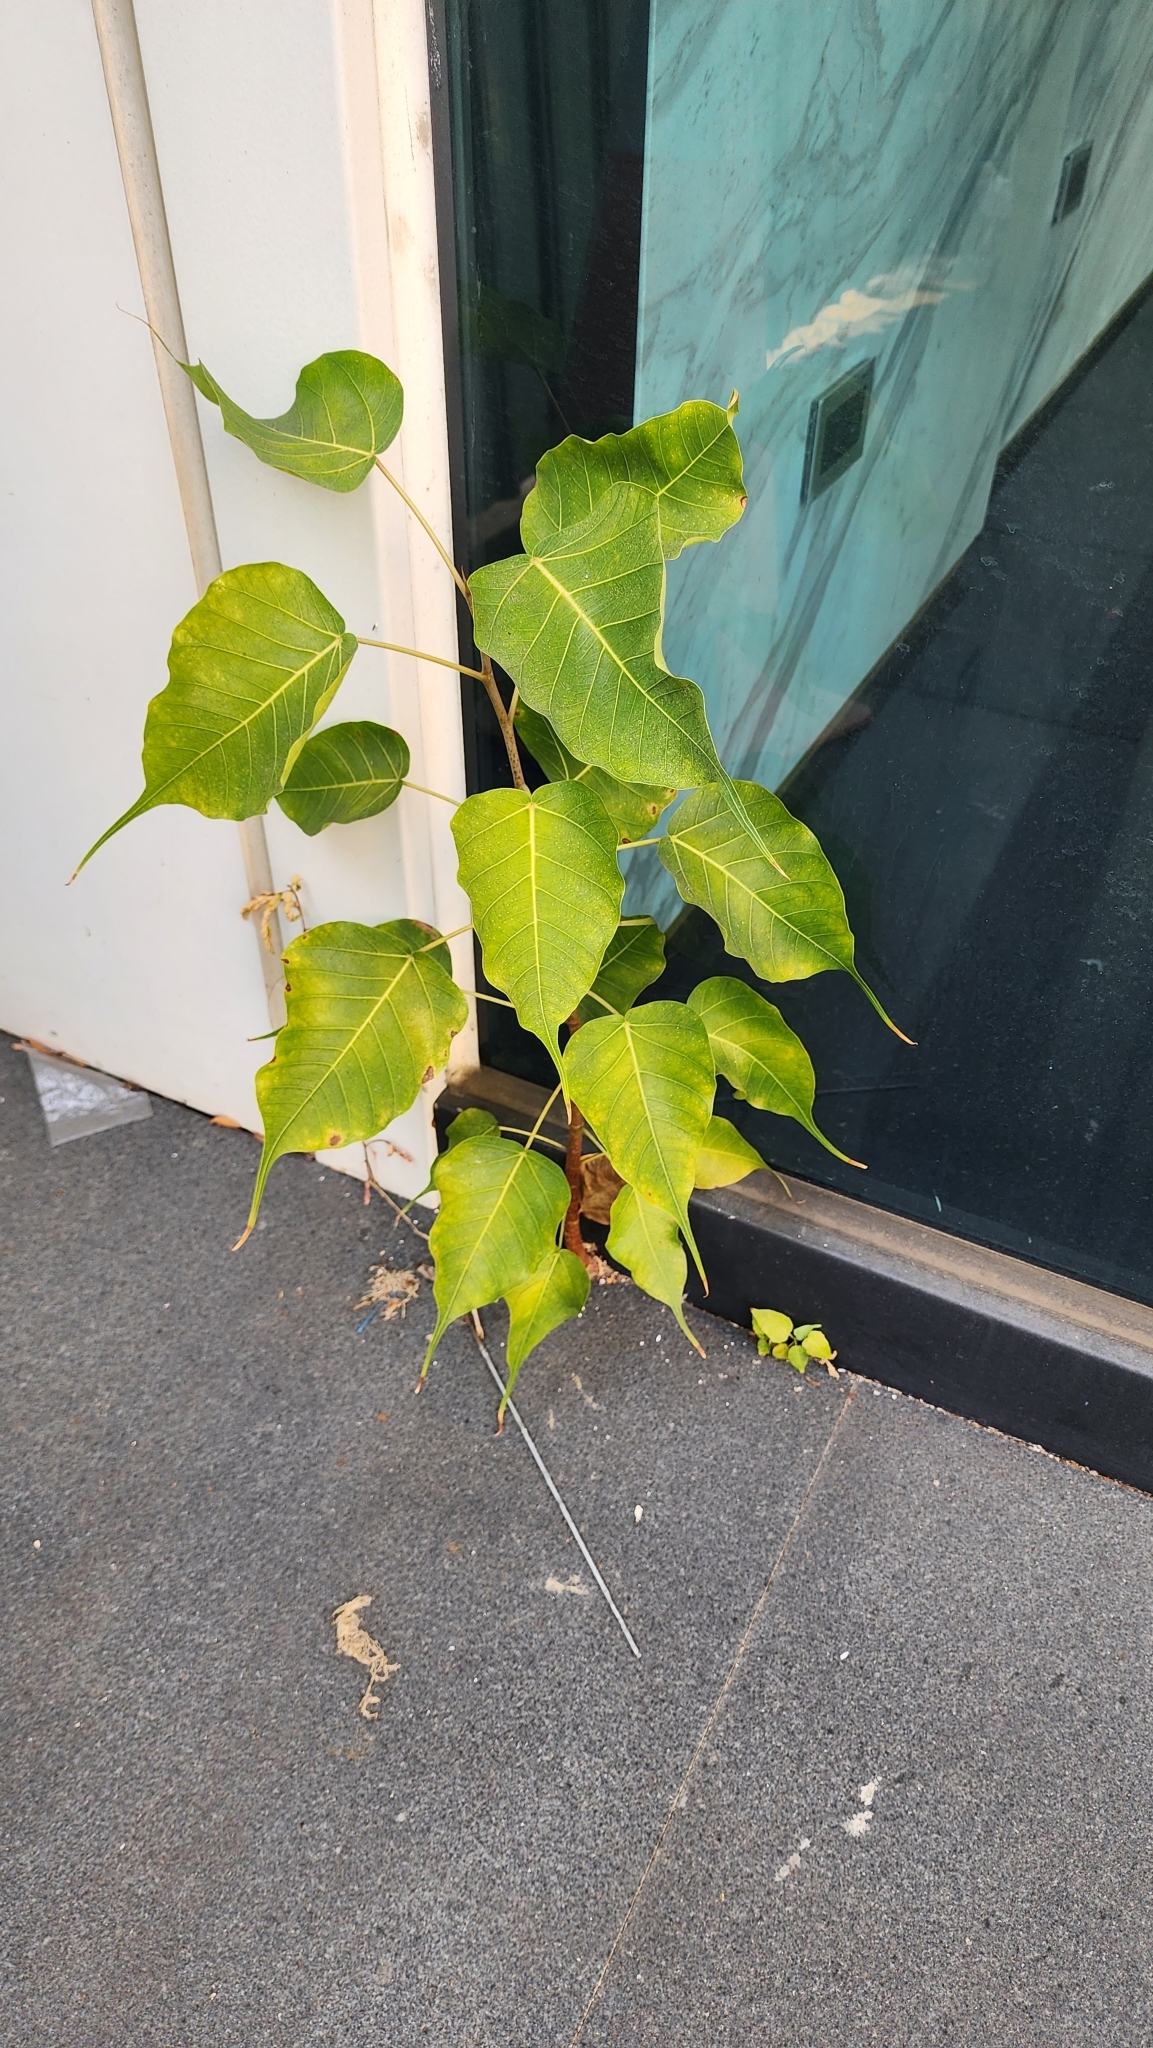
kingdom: Plantae
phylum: Tracheophyta
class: Magnoliopsida
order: Rosales
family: Moraceae
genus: Ficus
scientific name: Ficus religiosa
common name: Bodhi tree
